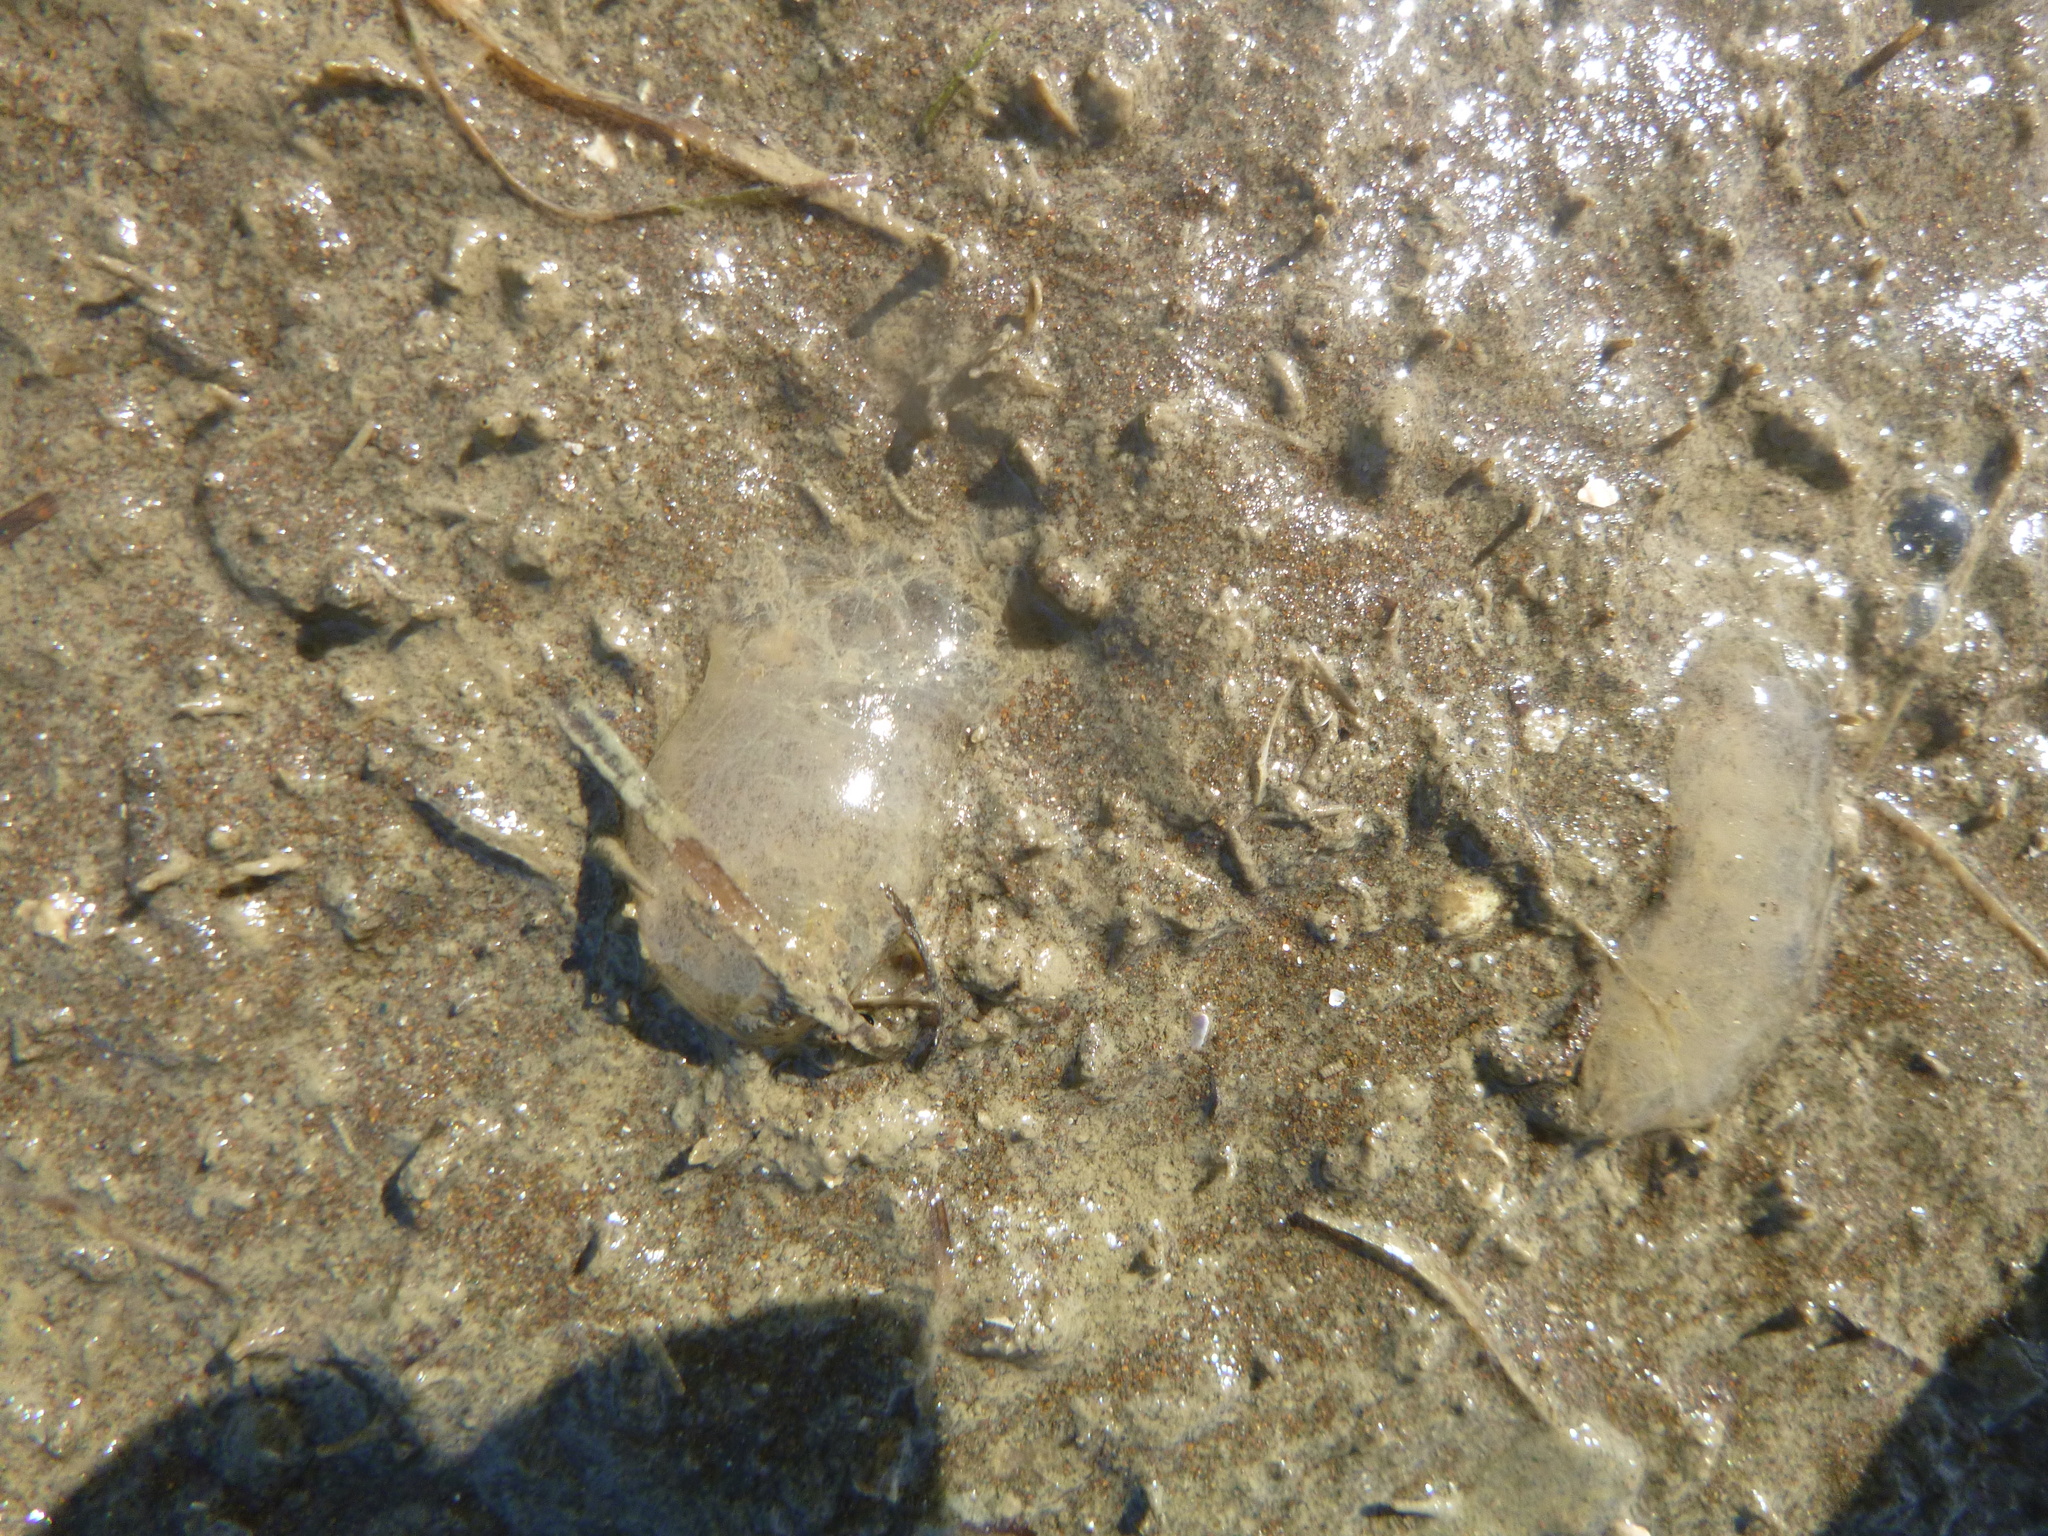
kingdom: Animalia
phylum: Mollusca
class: Gastropoda
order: Cephalaspidea
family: Philinidae
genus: Philine
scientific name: Philine
